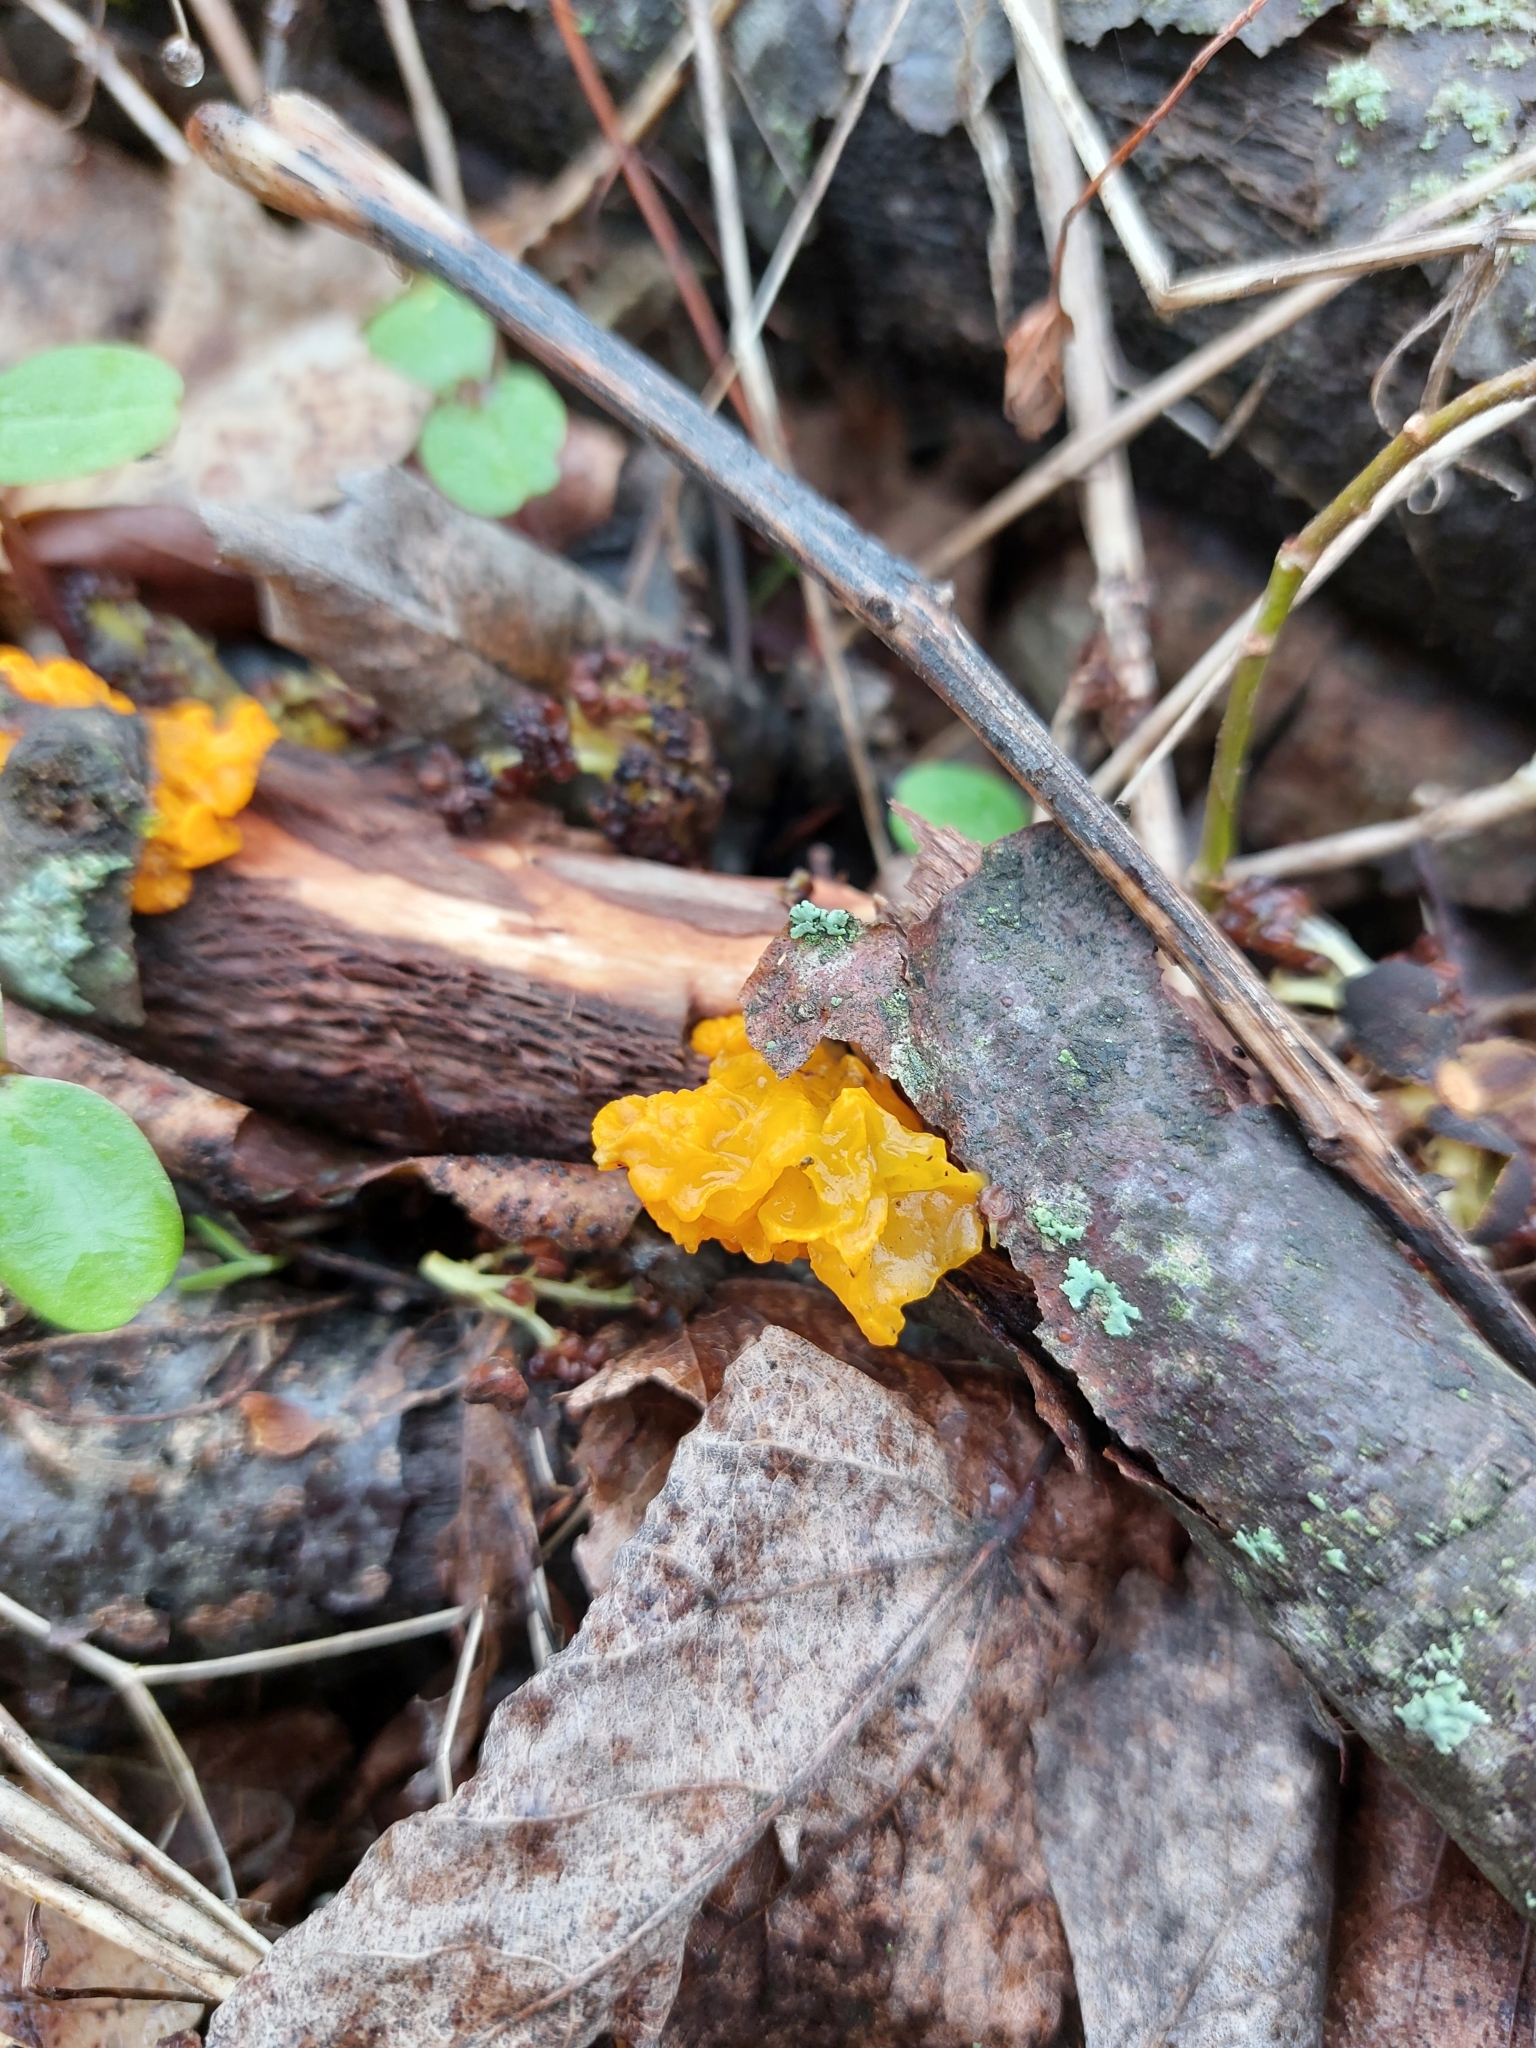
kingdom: Fungi
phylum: Basidiomycota
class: Tremellomycetes
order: Tremellales
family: Tremellaceae
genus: Tremella
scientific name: Tremella mesenterica
